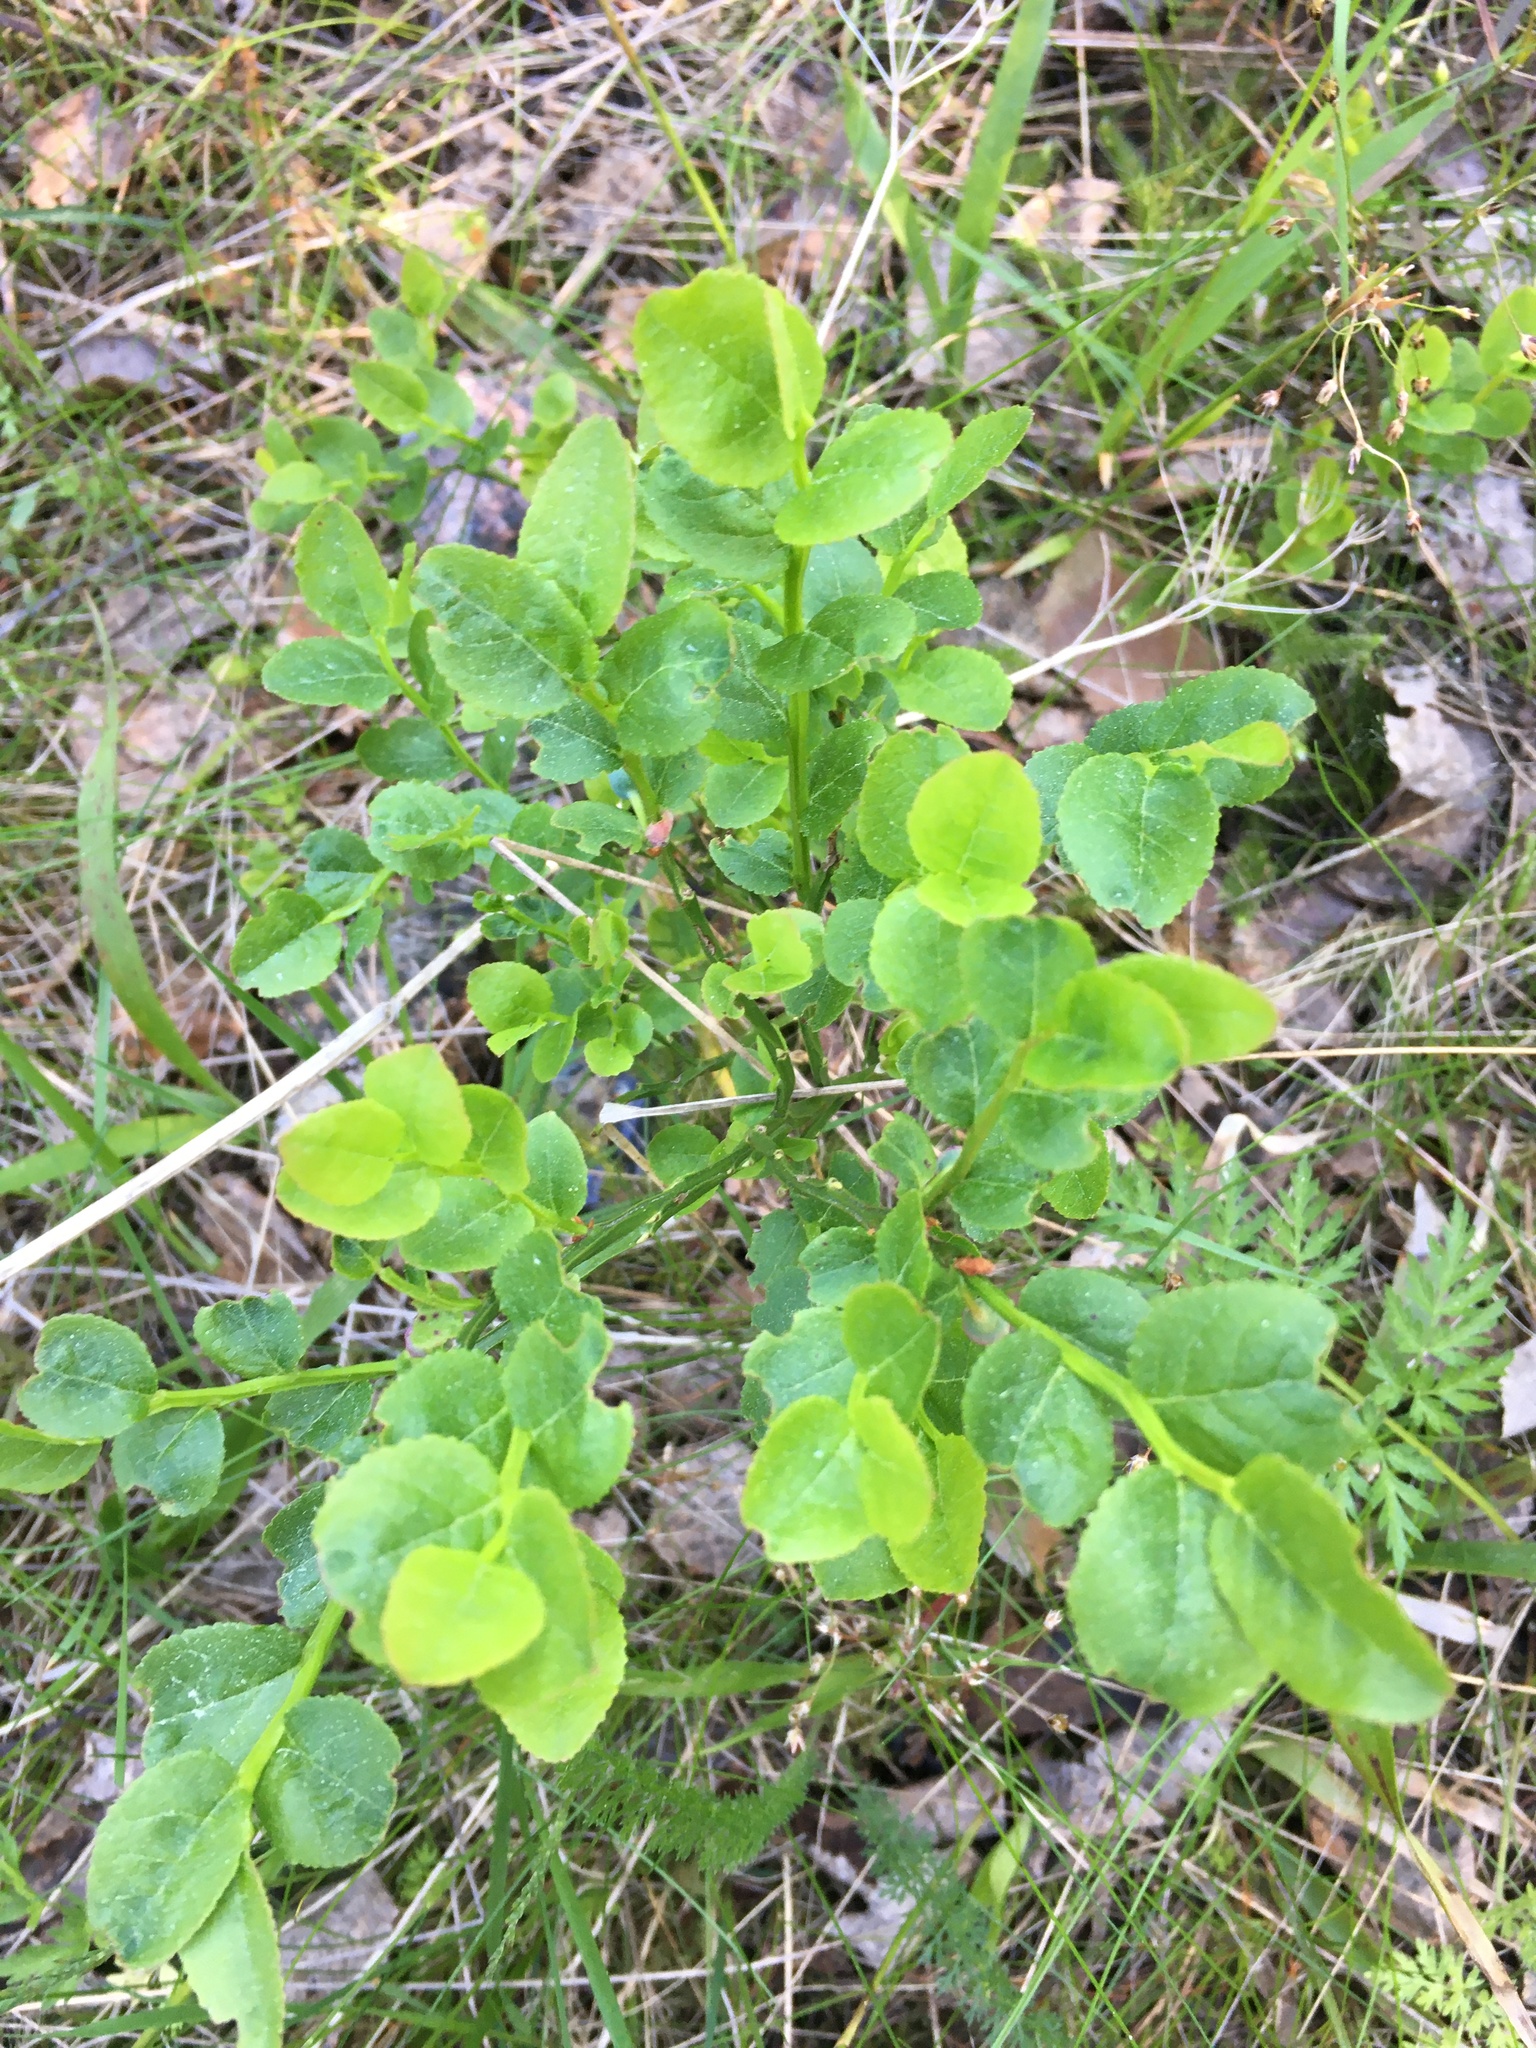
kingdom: Plantae
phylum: Tracheophyta
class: Magnoliopsida
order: Ericales
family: Ericaceae
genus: Vaccinium
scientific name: Vaccinium myrtillus
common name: Bilberry
